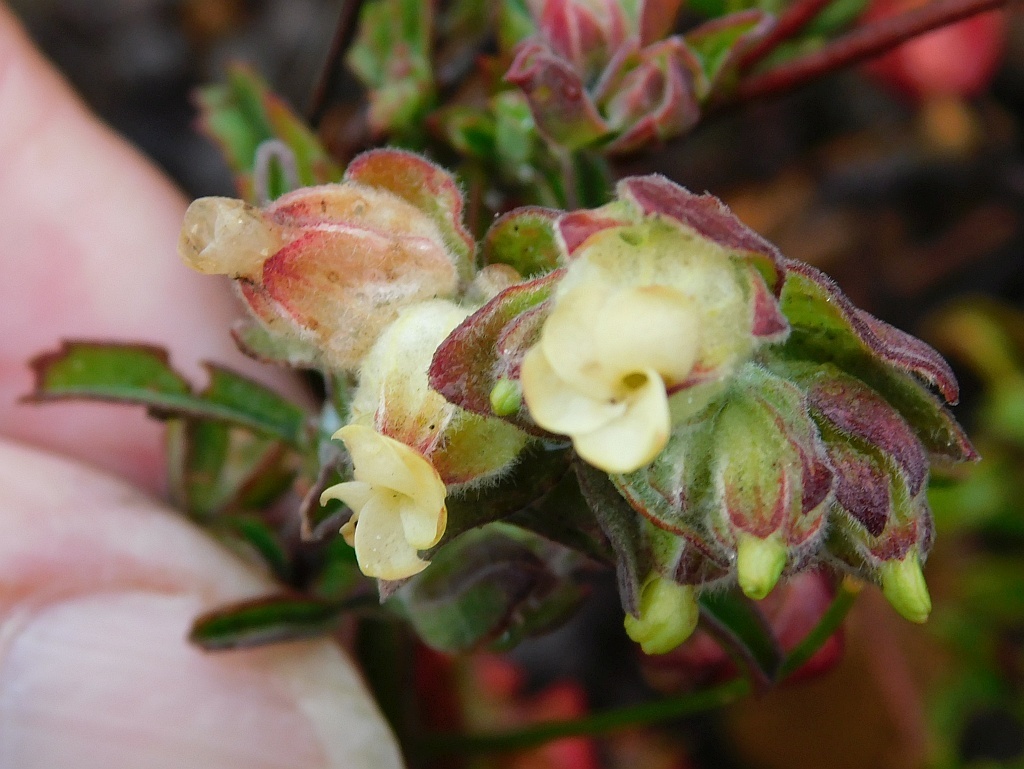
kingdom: Plantae
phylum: Tracheophyta
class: Magnoliopsida
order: Malvales
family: Malvaceae
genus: Hermannia
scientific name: Hermannia hyssopifolia
